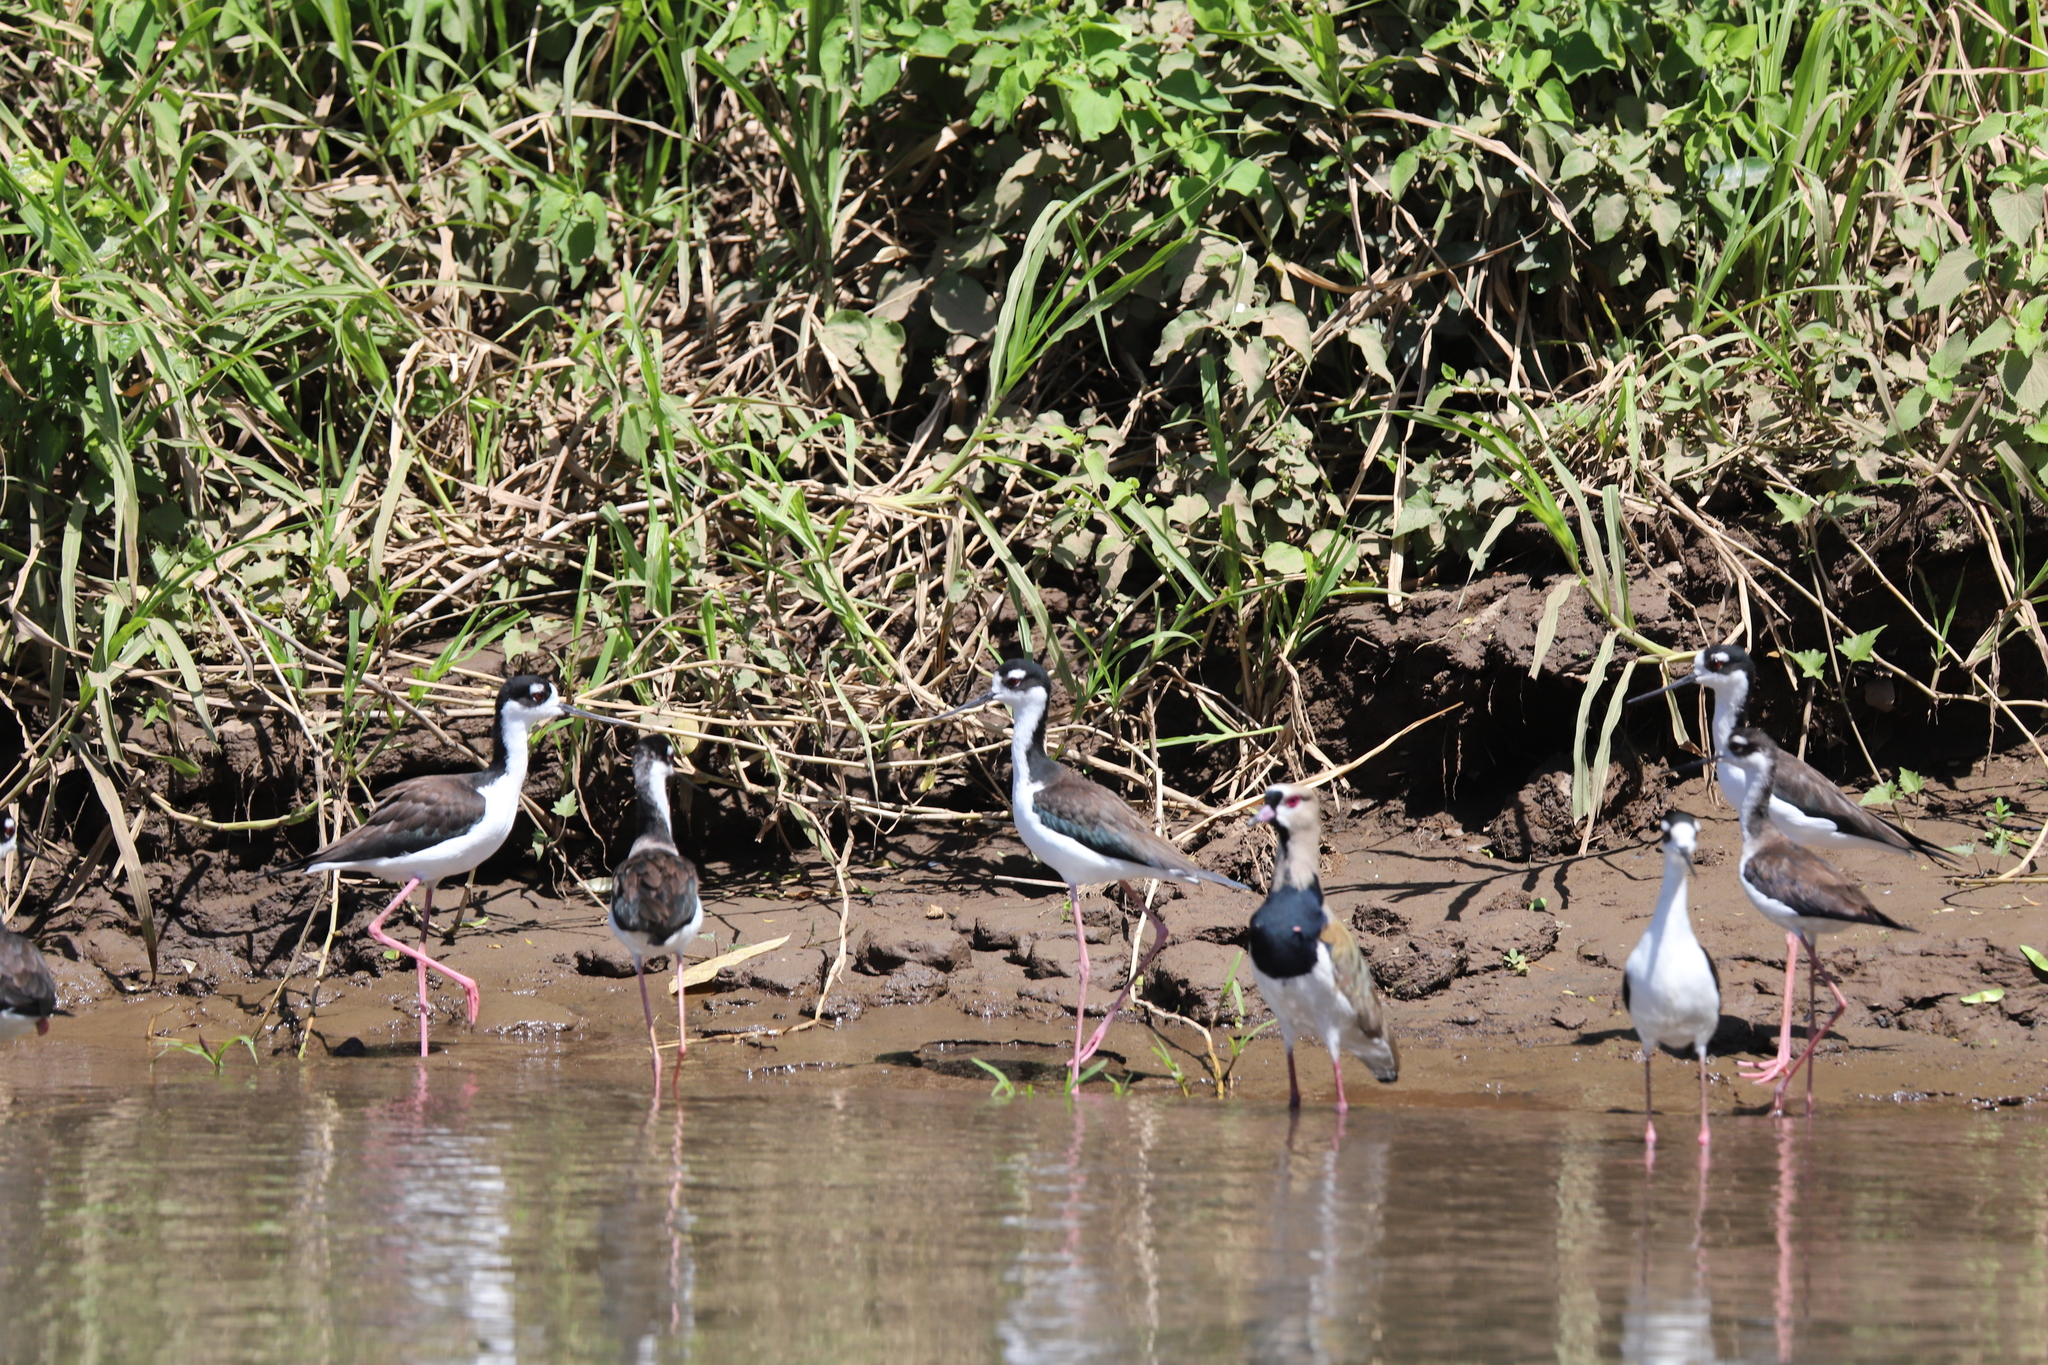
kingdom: Animalia
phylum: Chordata
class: Aves
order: Charadriiformes
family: Recurvirostridae
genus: Himantopus
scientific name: Himantopus mexicanus
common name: Black-necked stilt
